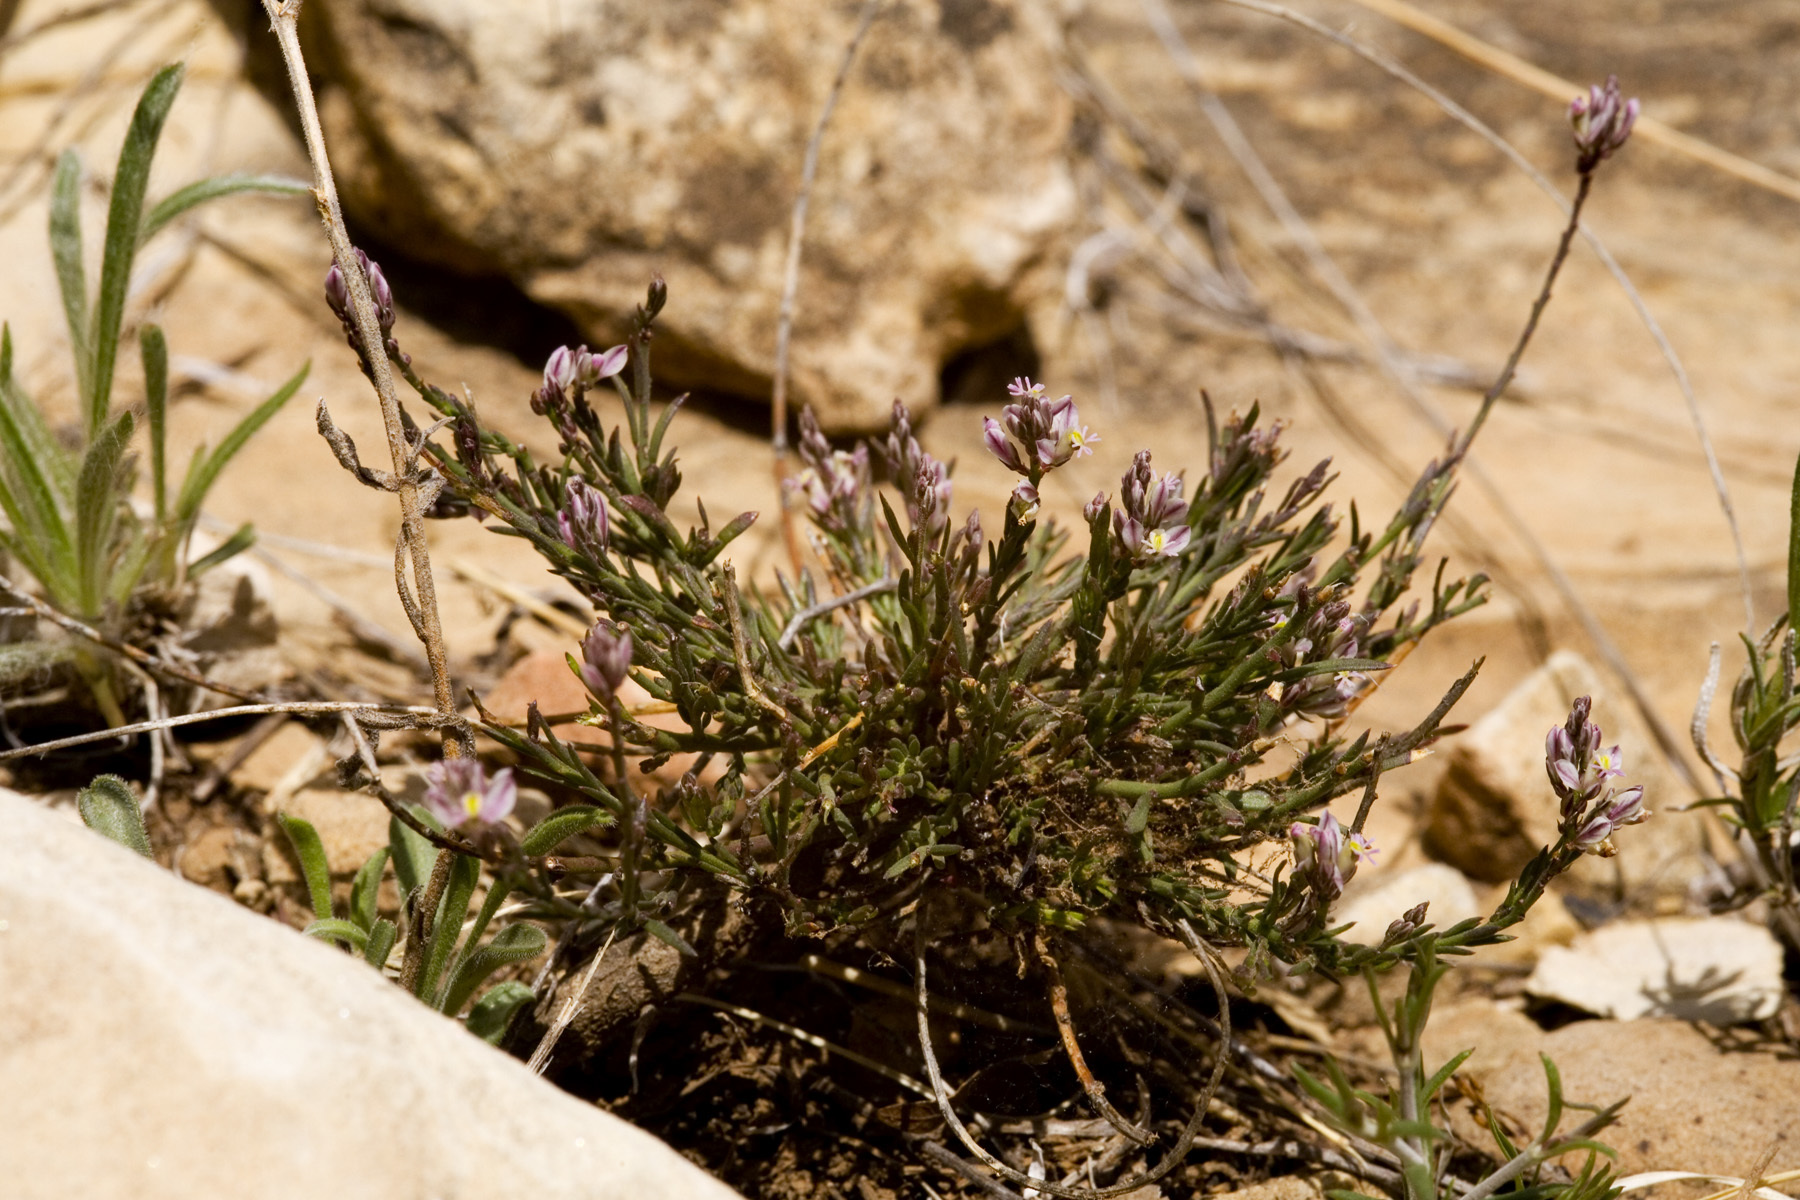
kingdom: Plantae
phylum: Tracheophyta
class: Magnoliopsida
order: Fabales
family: Polygalaceae
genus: Polygala
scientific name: Polygala scoparioides
